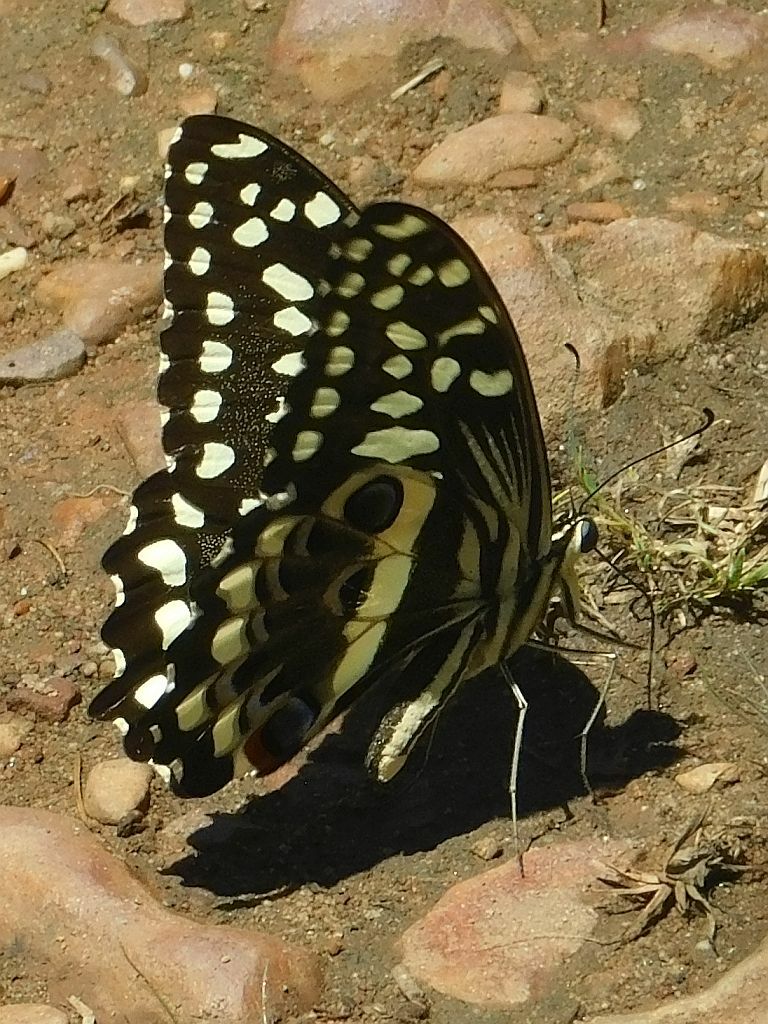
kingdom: Animalia
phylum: Arthropoda
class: Insecta
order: Lepidoptera
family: Papilionidae
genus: Papilio
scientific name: Papilio demodocus
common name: Christmas butterfly
